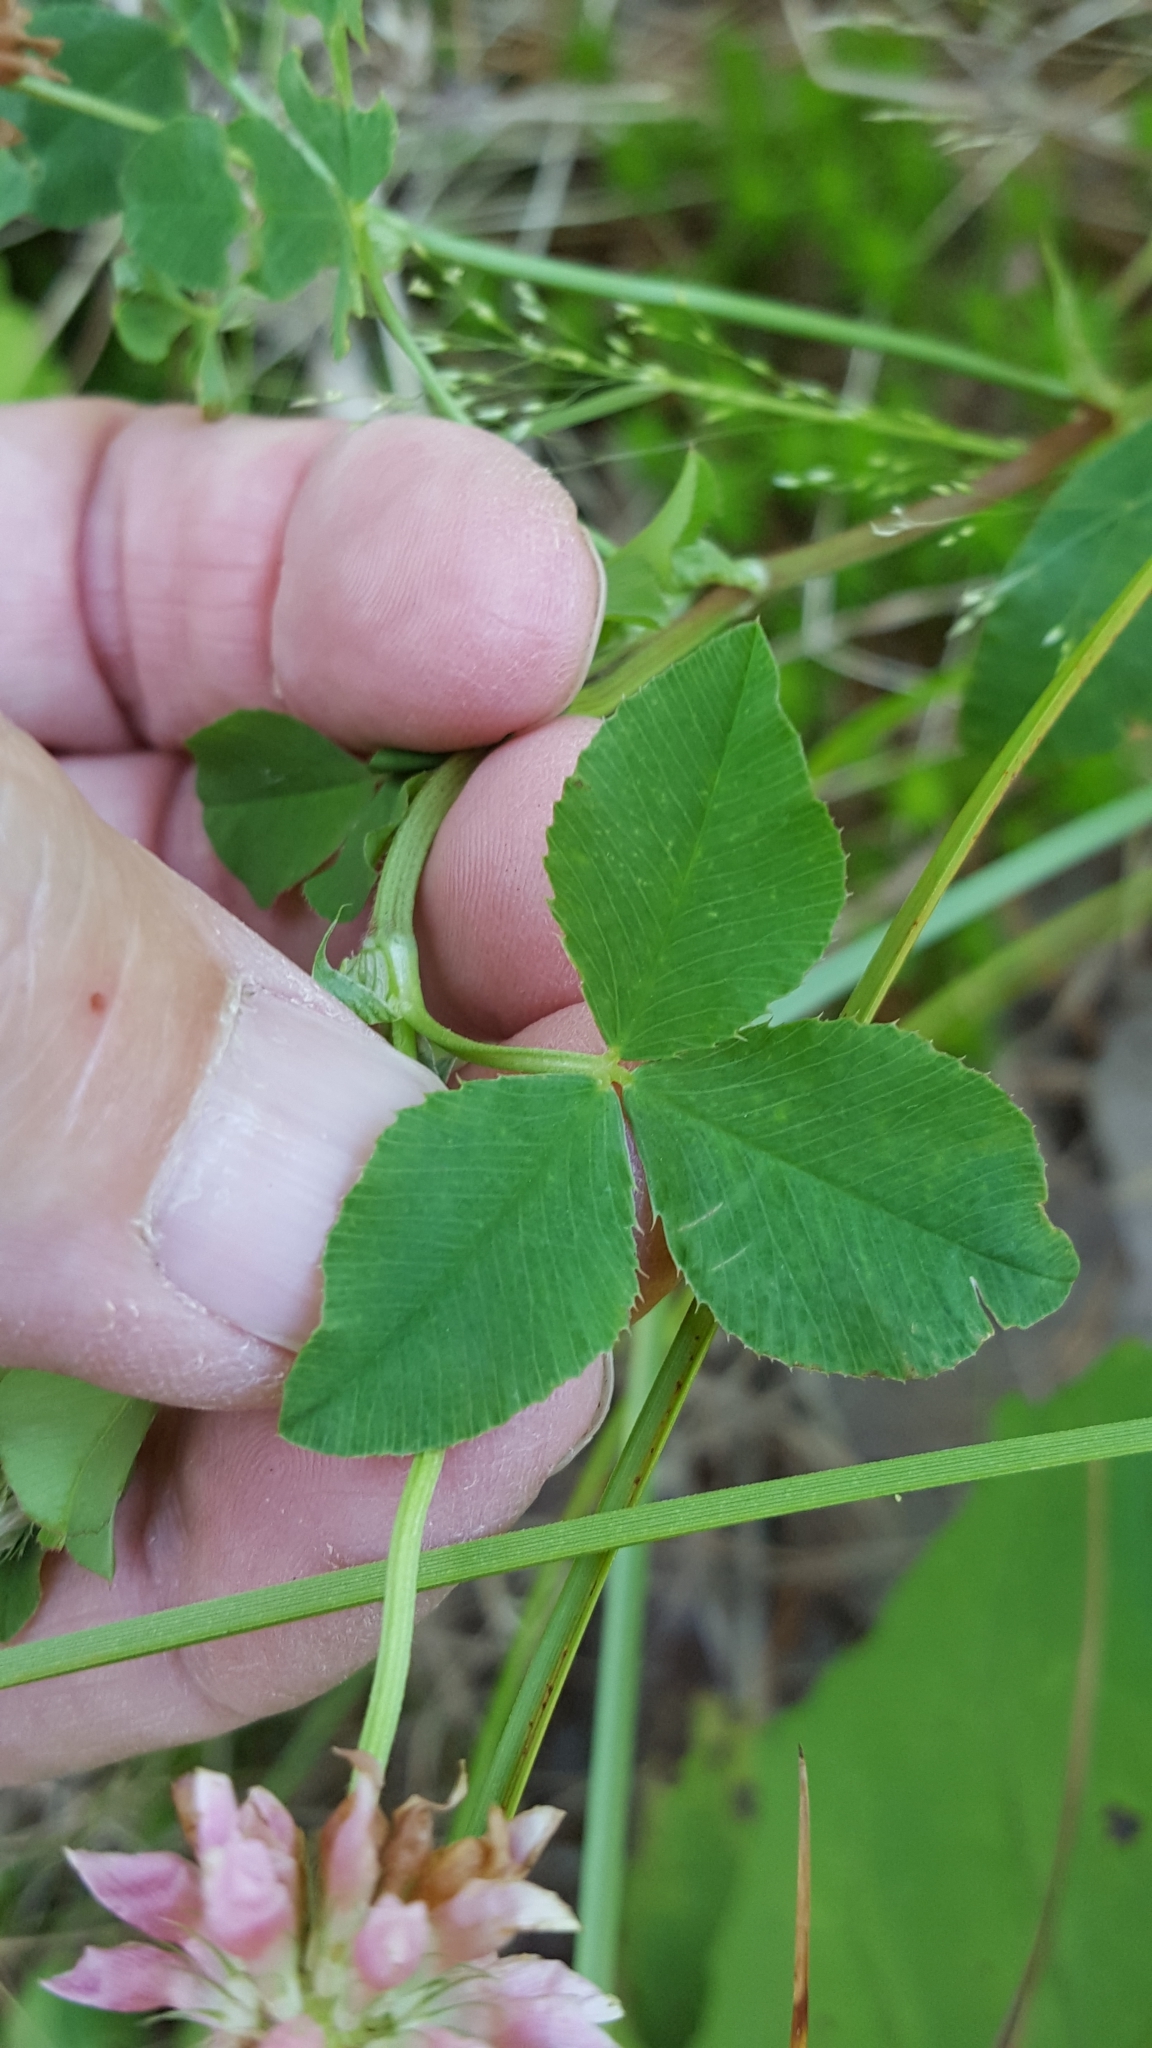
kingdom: Plantae
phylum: Tracheophyta
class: Magnoliopsida
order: Fabales
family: Fabaceae
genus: Trifolium
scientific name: Trifolium hybridum
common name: Alsike clover
